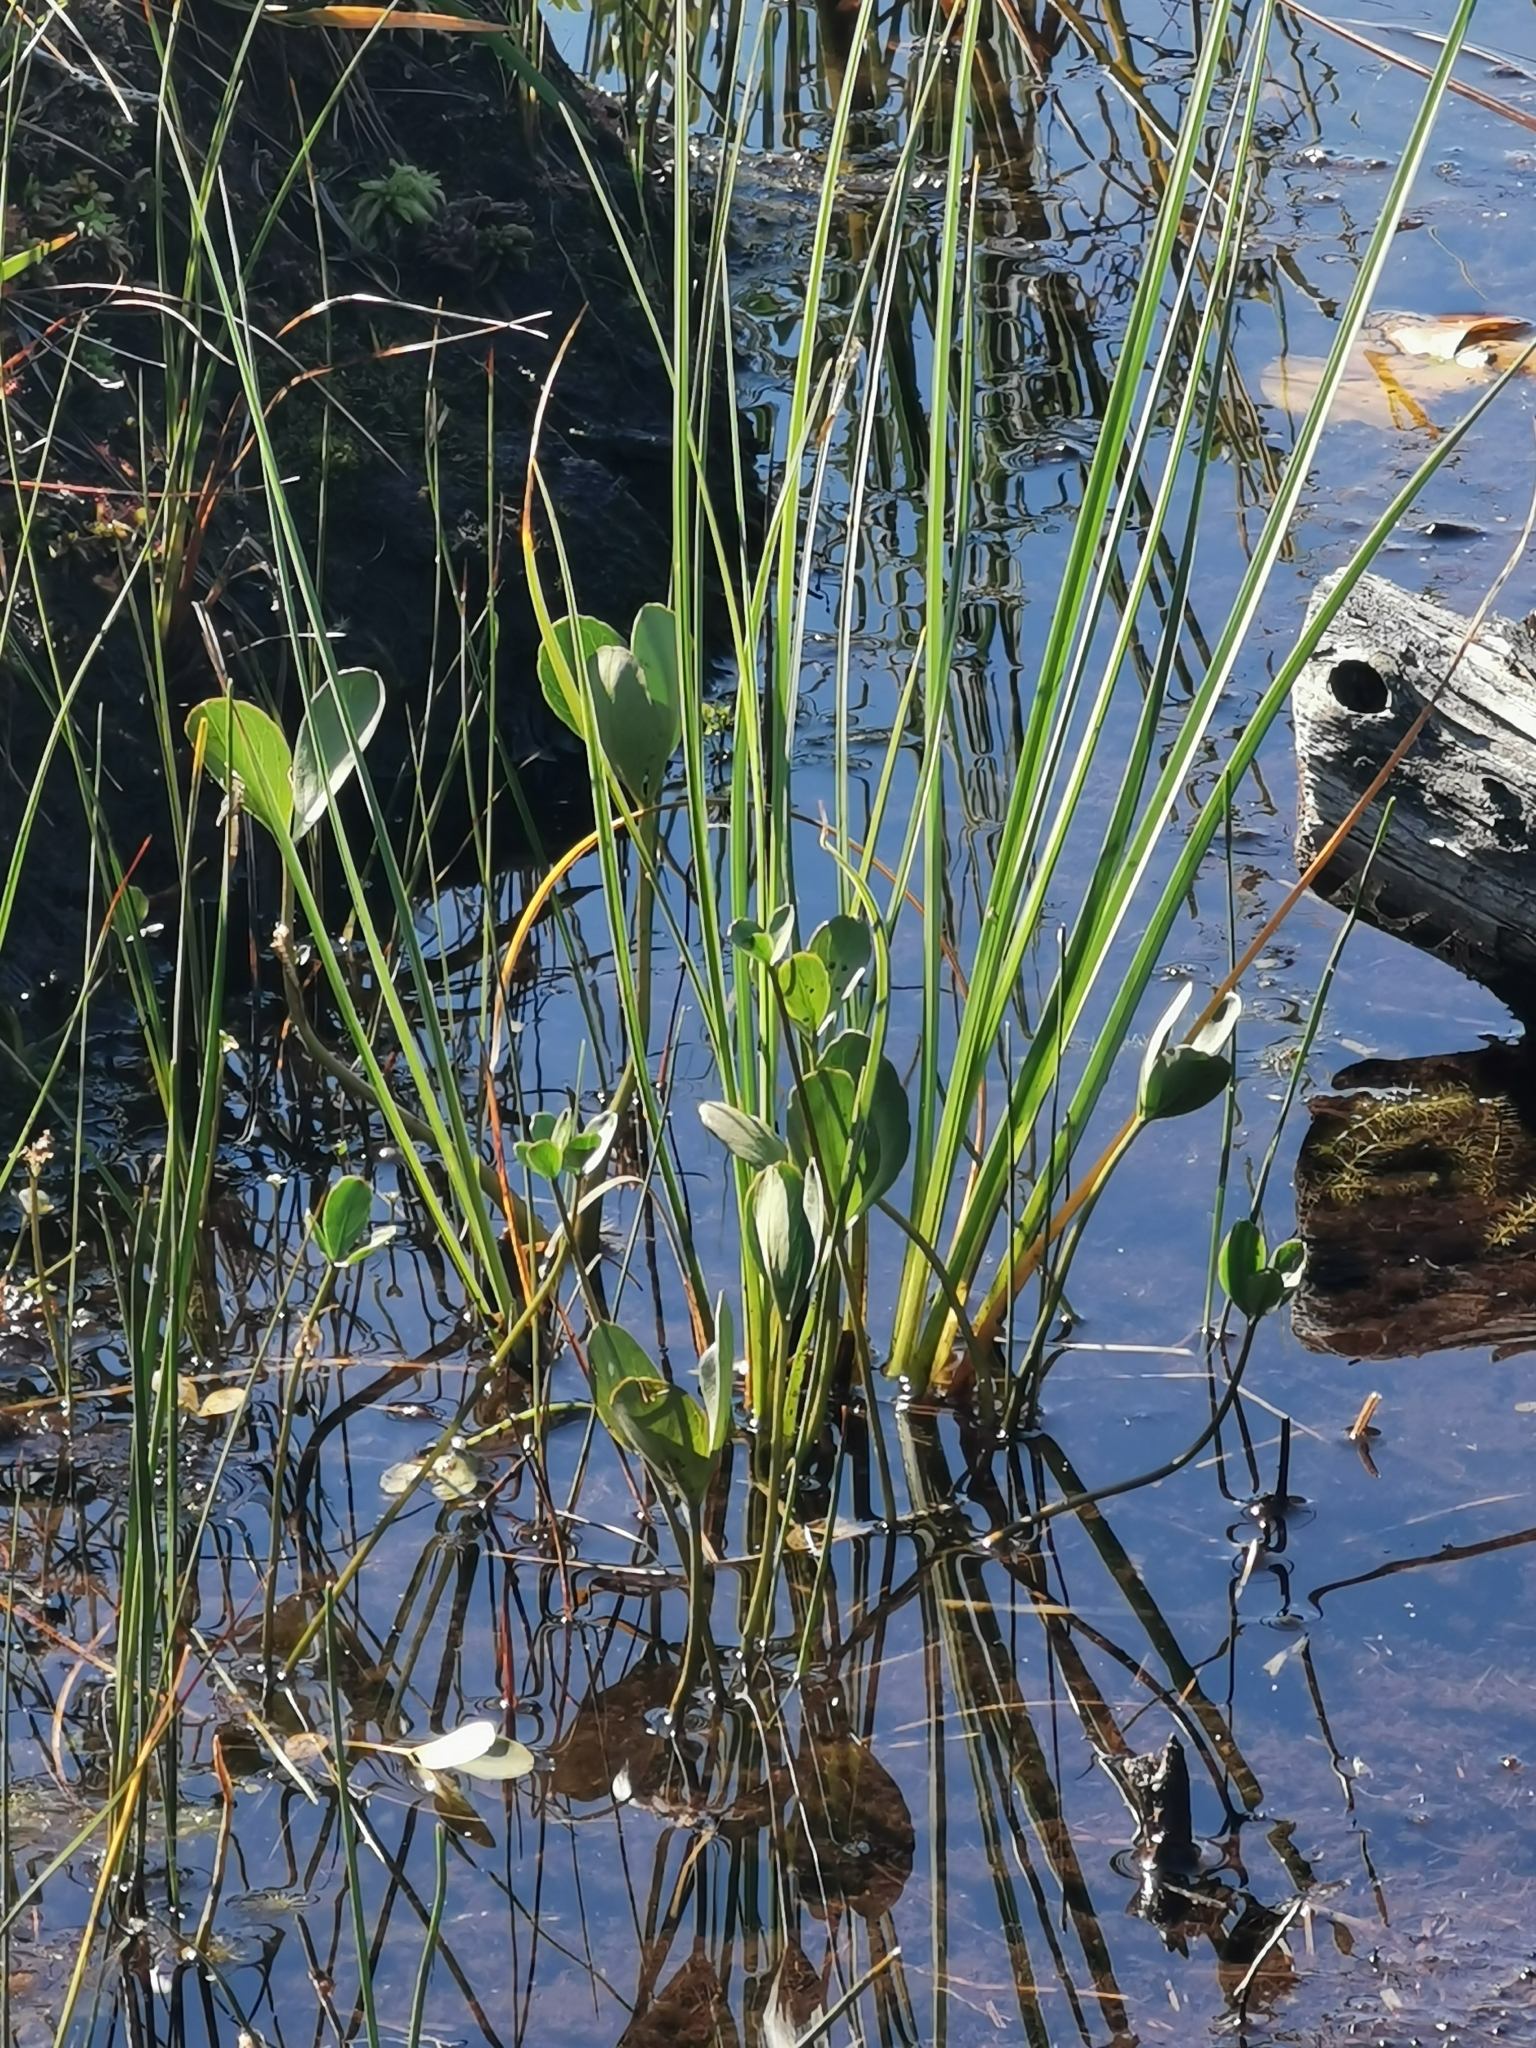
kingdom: Plantae
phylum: Tracheophyta
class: Magnoliopsida
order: Asterales
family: Menyanthaceae
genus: Menyanthes
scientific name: Menyanthes trifoliata
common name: Bogbean
